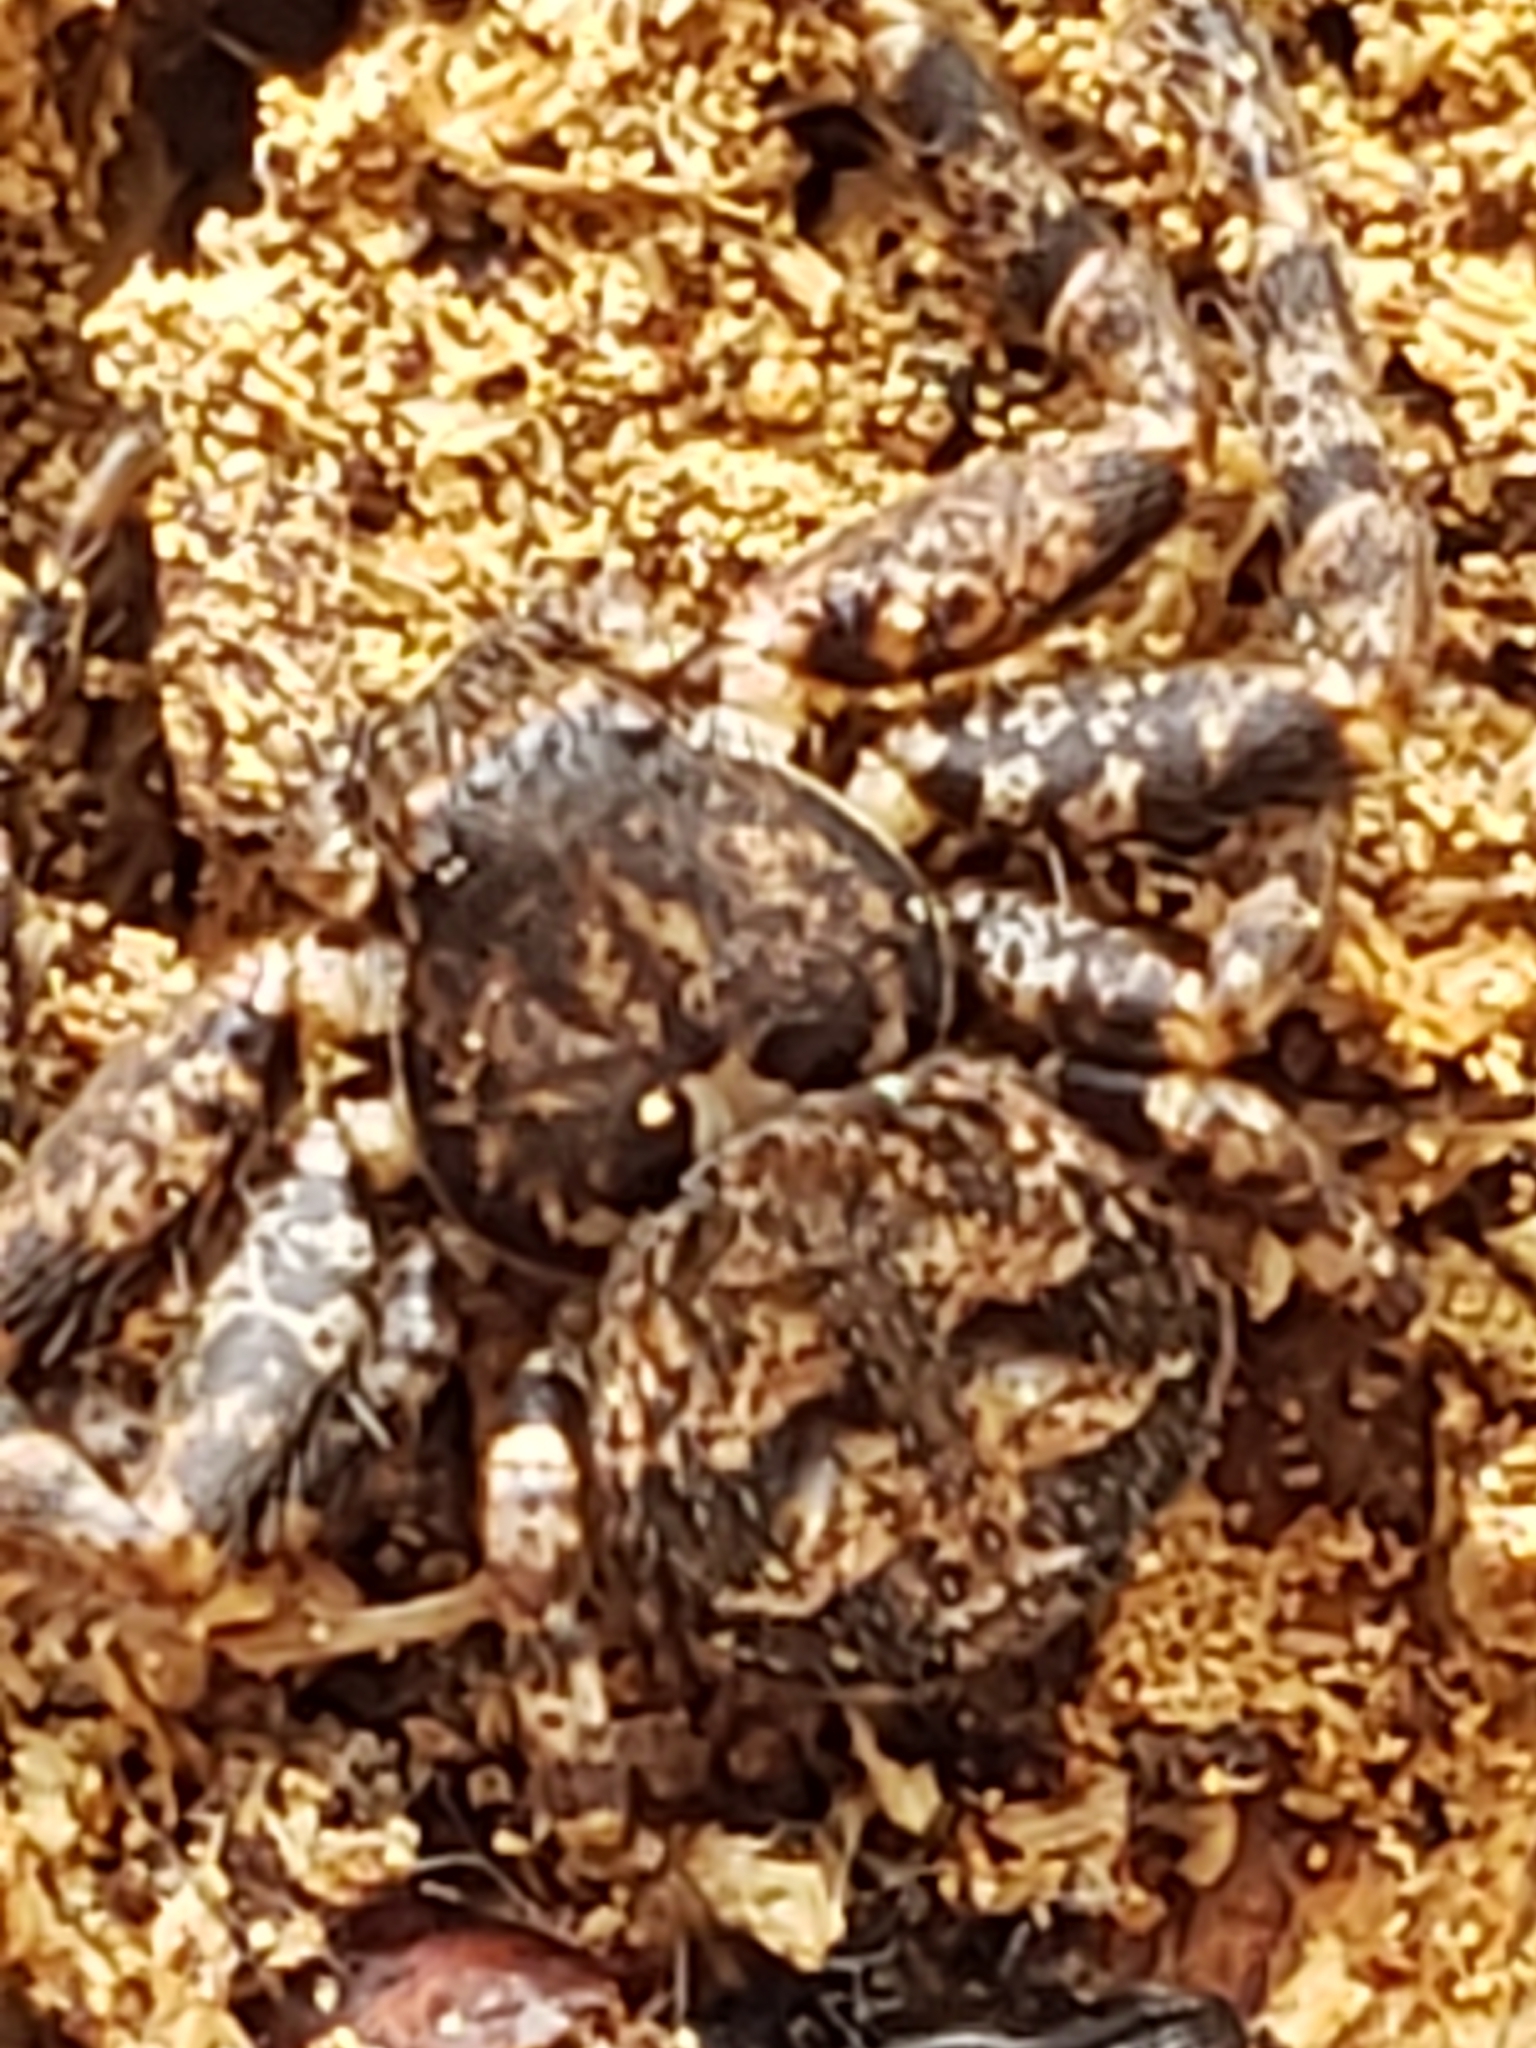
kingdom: Animalia
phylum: Arthropoda
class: Arachnida
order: Araneae
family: Thomisidae
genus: Bassaniana
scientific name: Bassaniana versicolor
